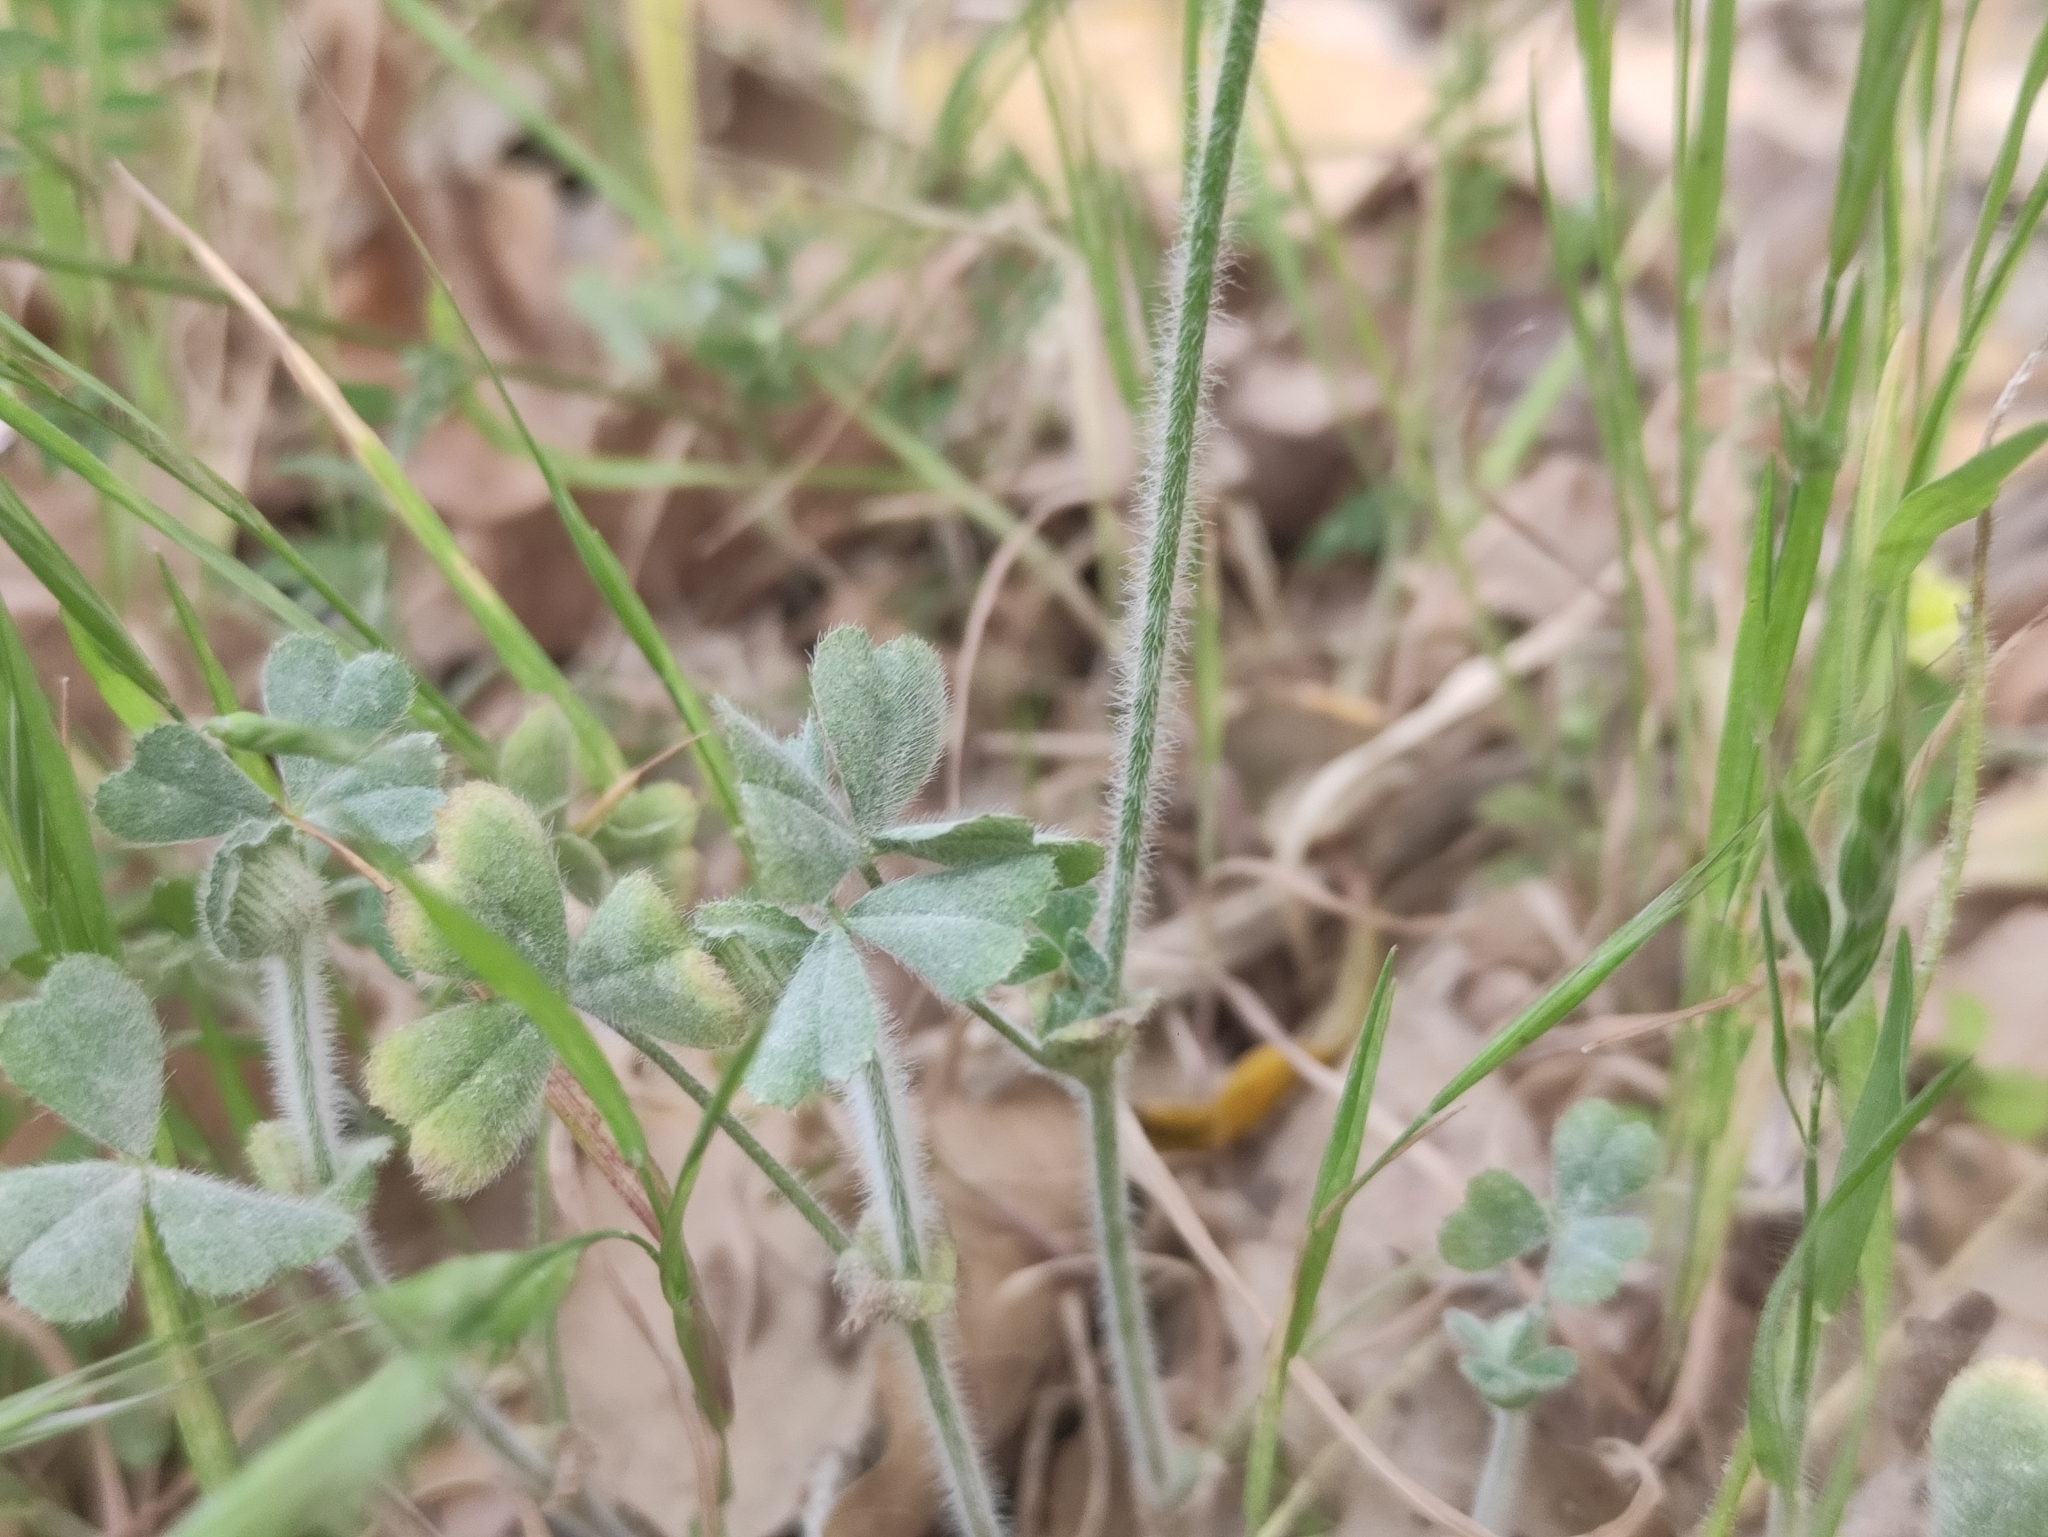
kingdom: Plantae
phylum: Tracheophyta
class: Magnoliopsida
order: Fabales
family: Fabaceae
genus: Trifolium
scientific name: Trifolium stellatum
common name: Starry clover
